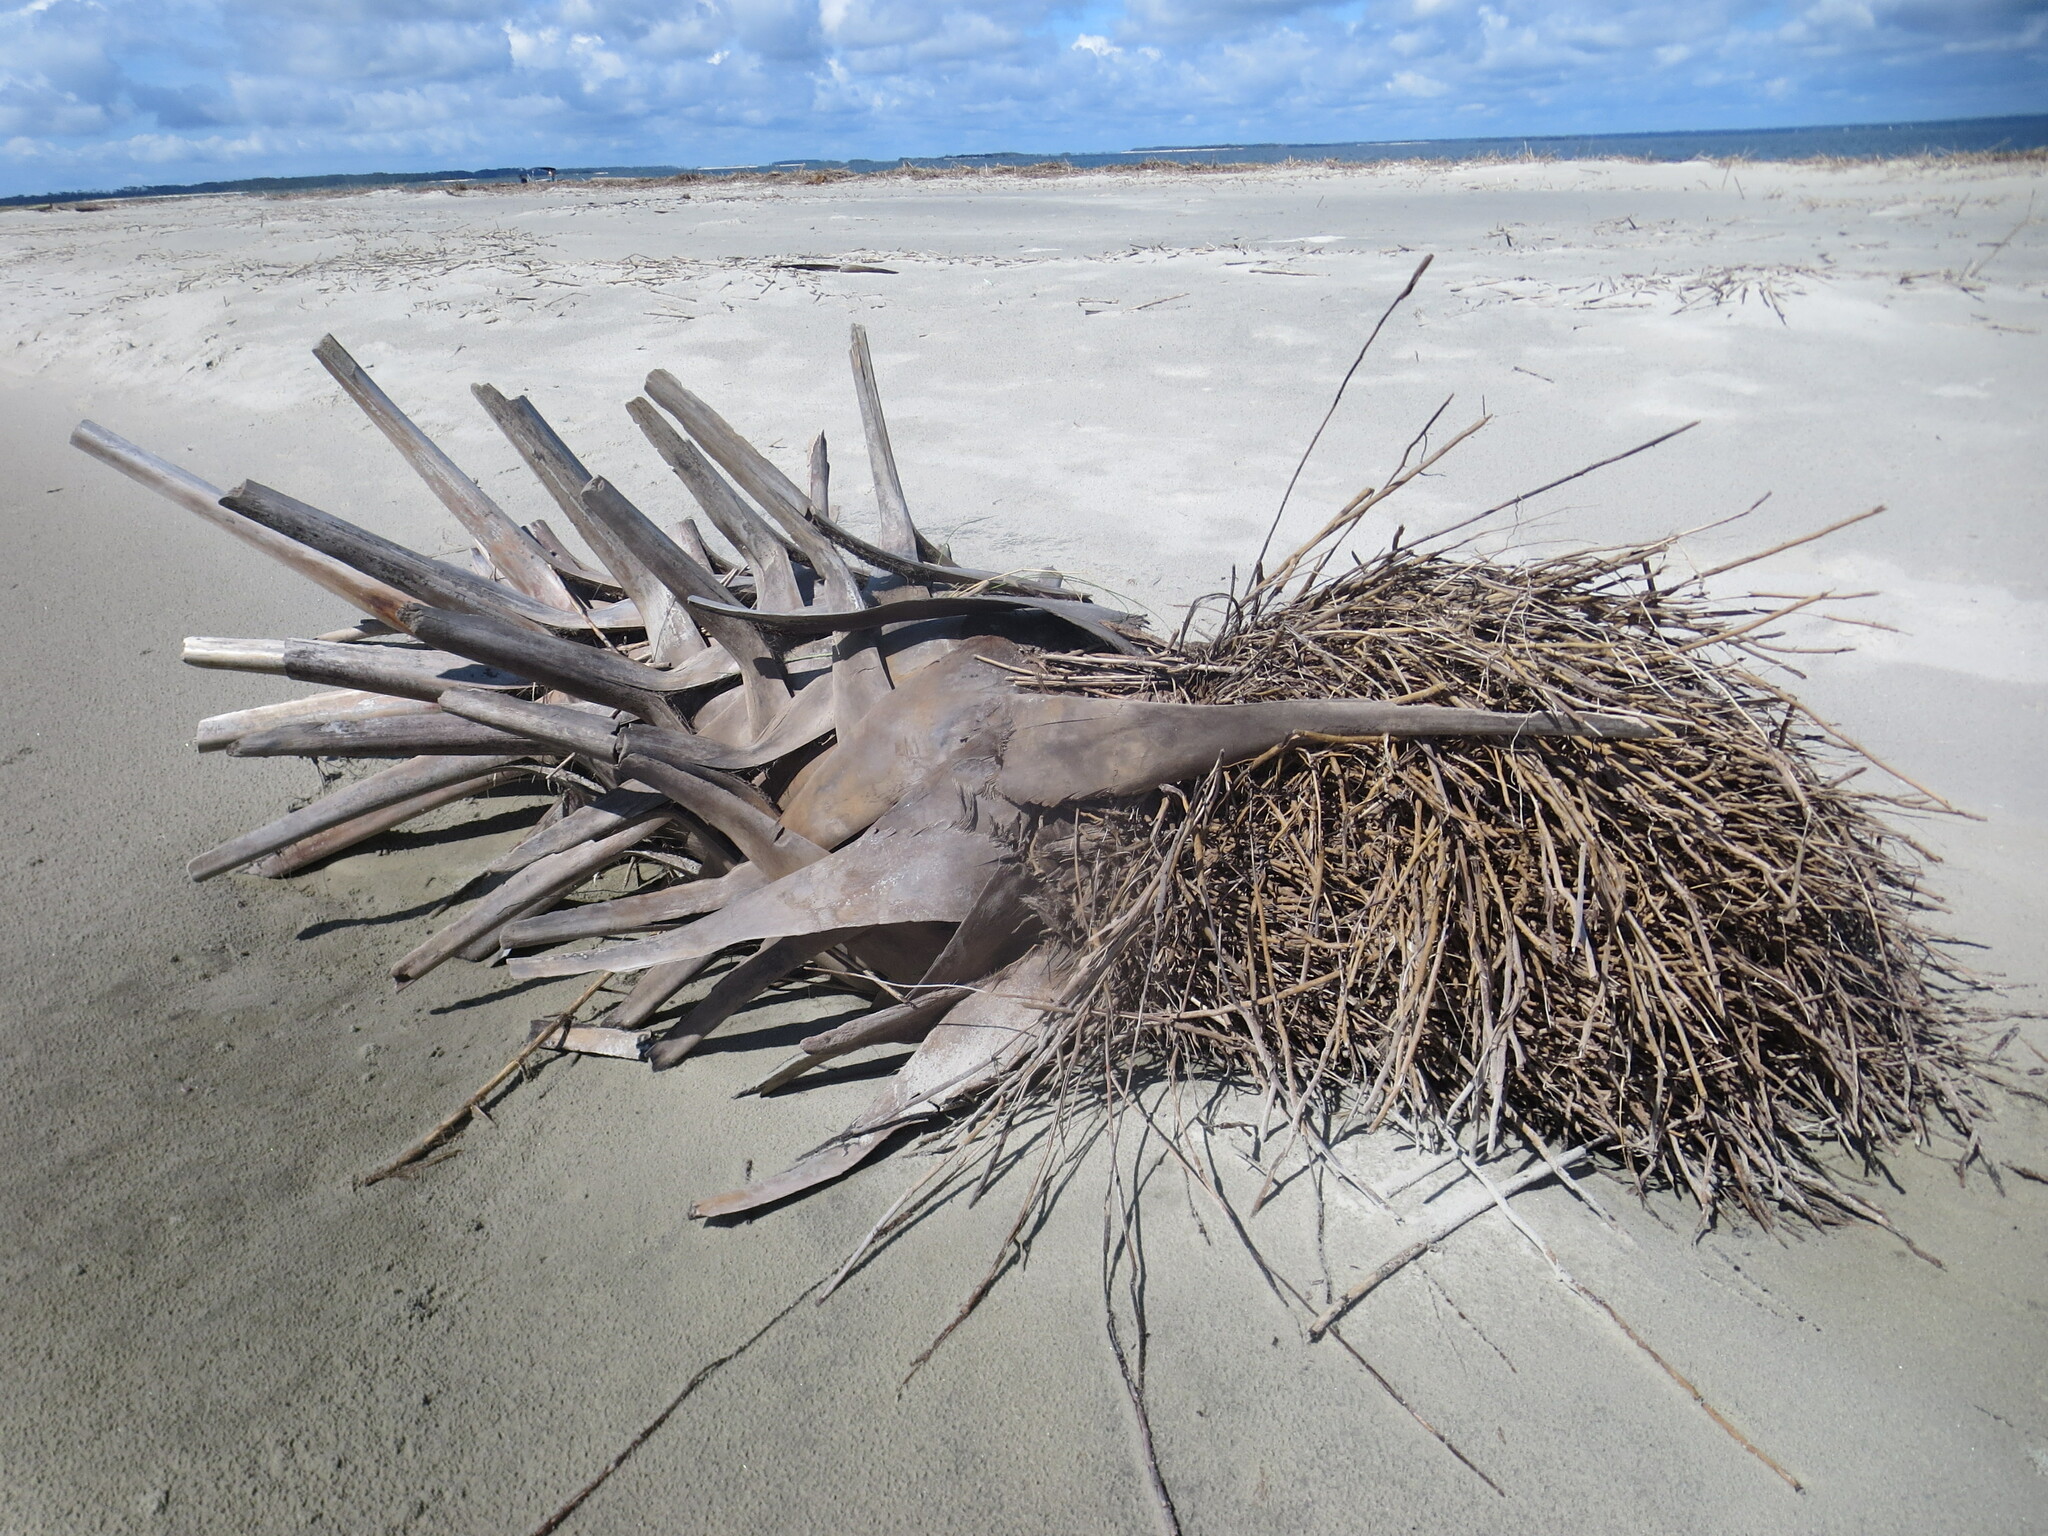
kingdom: Plantae
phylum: Tracheophyta
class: Liliopsida
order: Arecales
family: Arecaceae
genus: Sabal
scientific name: Sabal palmetto
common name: Blue palmetto
